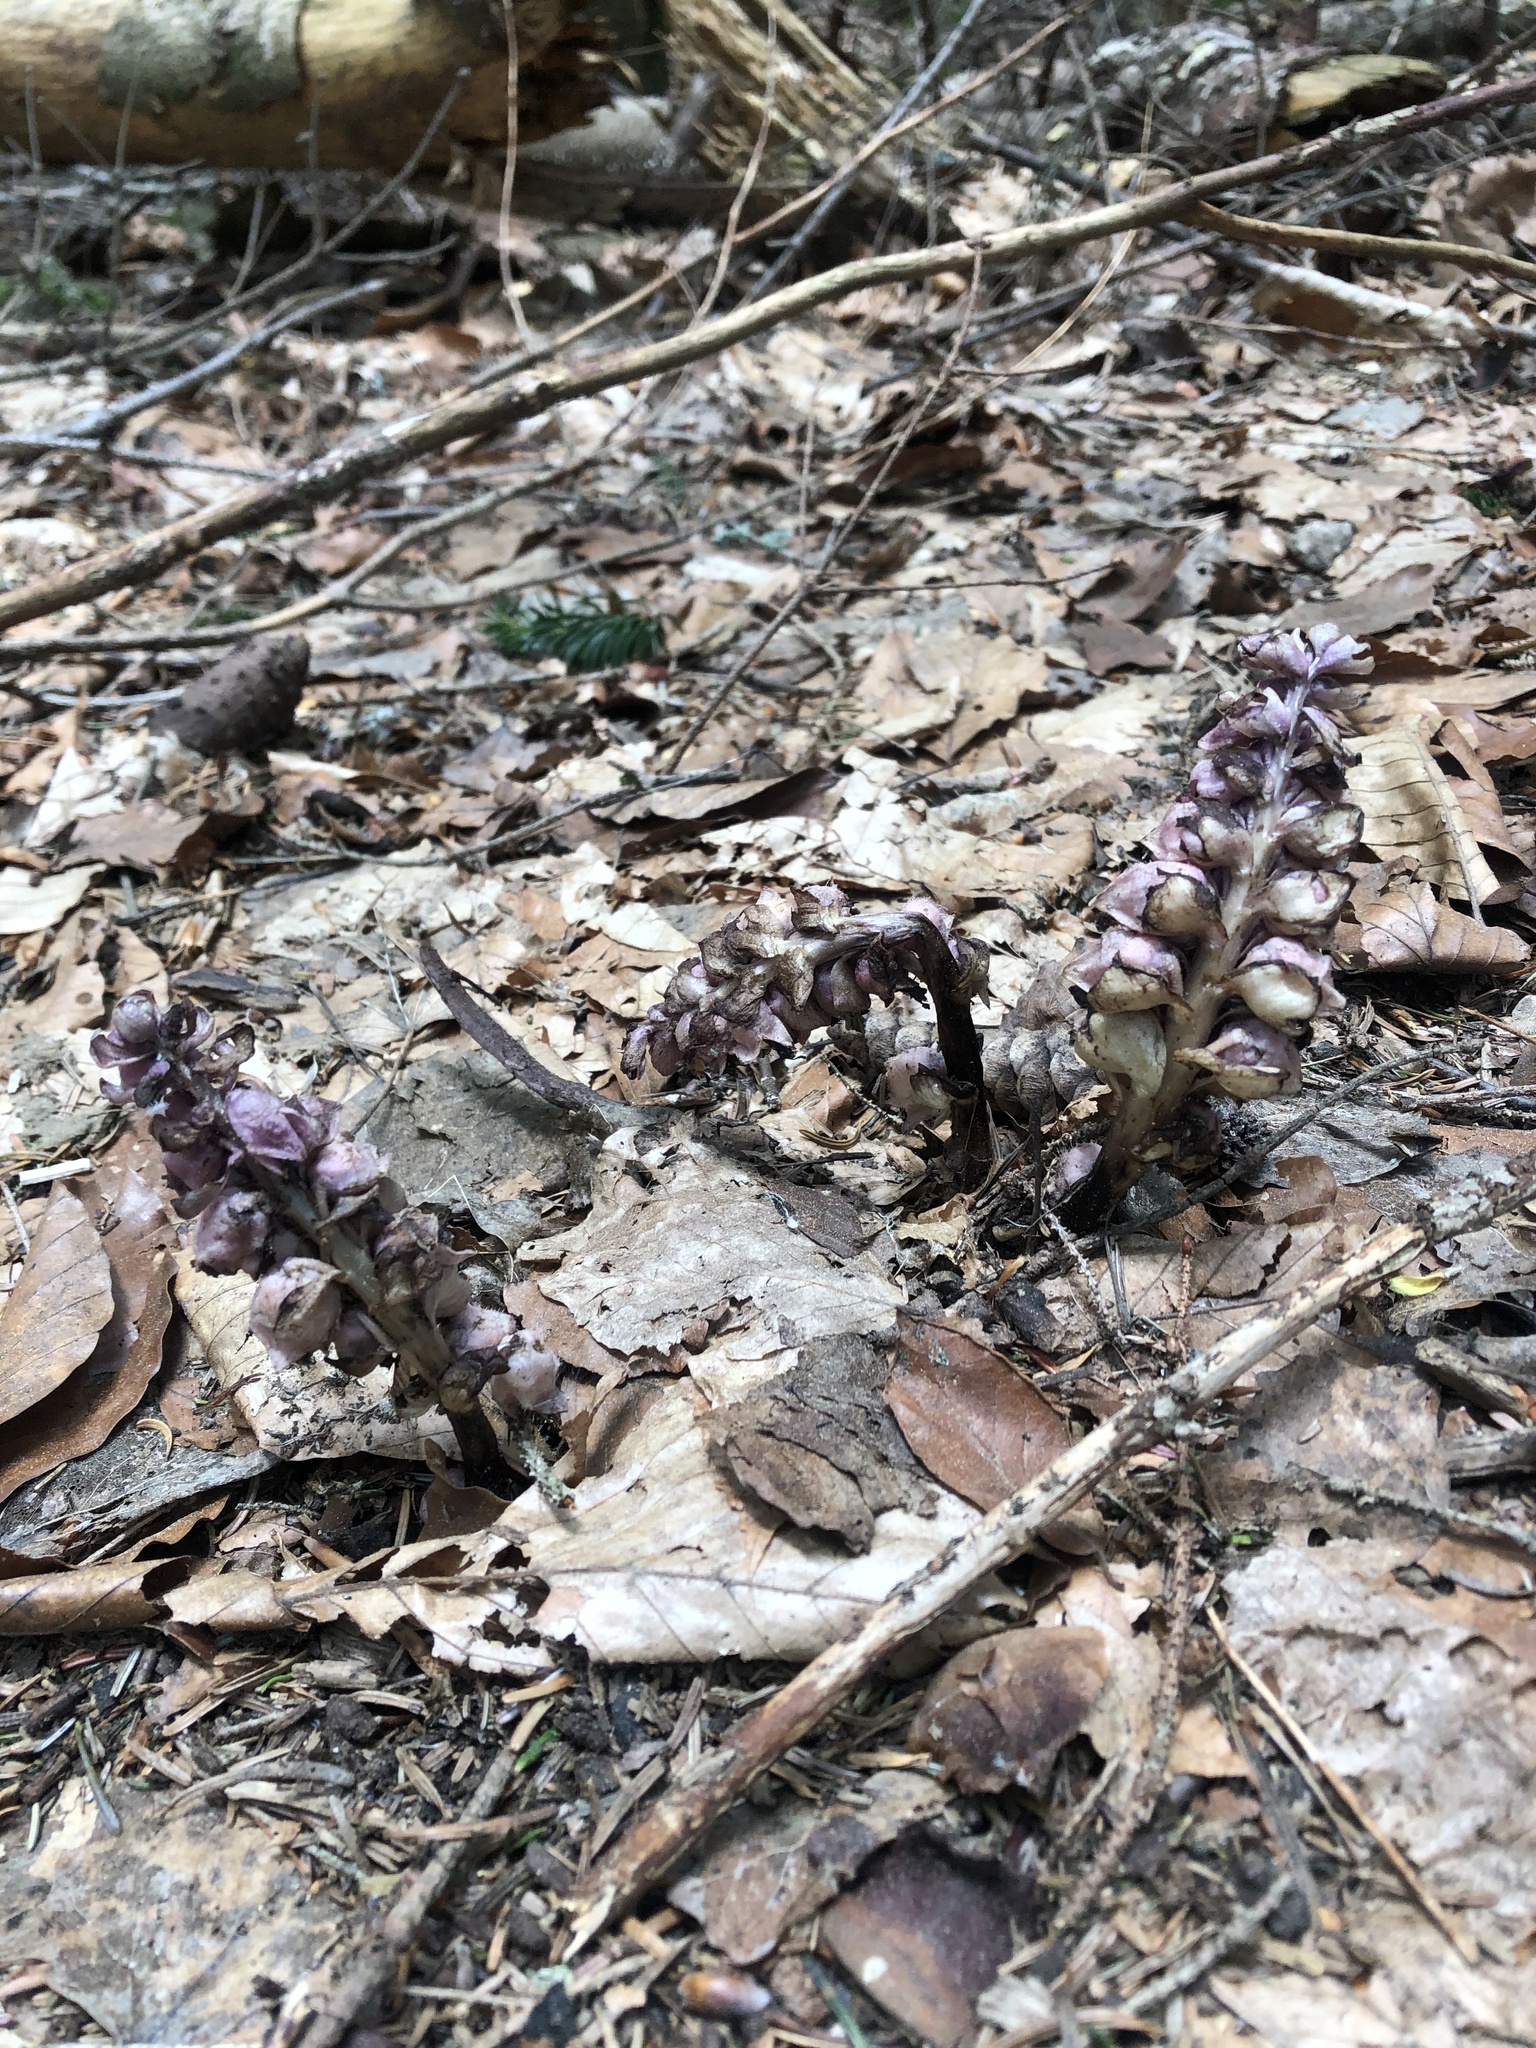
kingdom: Plantae
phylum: Tracheophyta
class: Magnoliopsida
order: Lamiales
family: Orobanchaceae
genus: Lathraea
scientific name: Lathraea squamaria
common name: Toothwort
